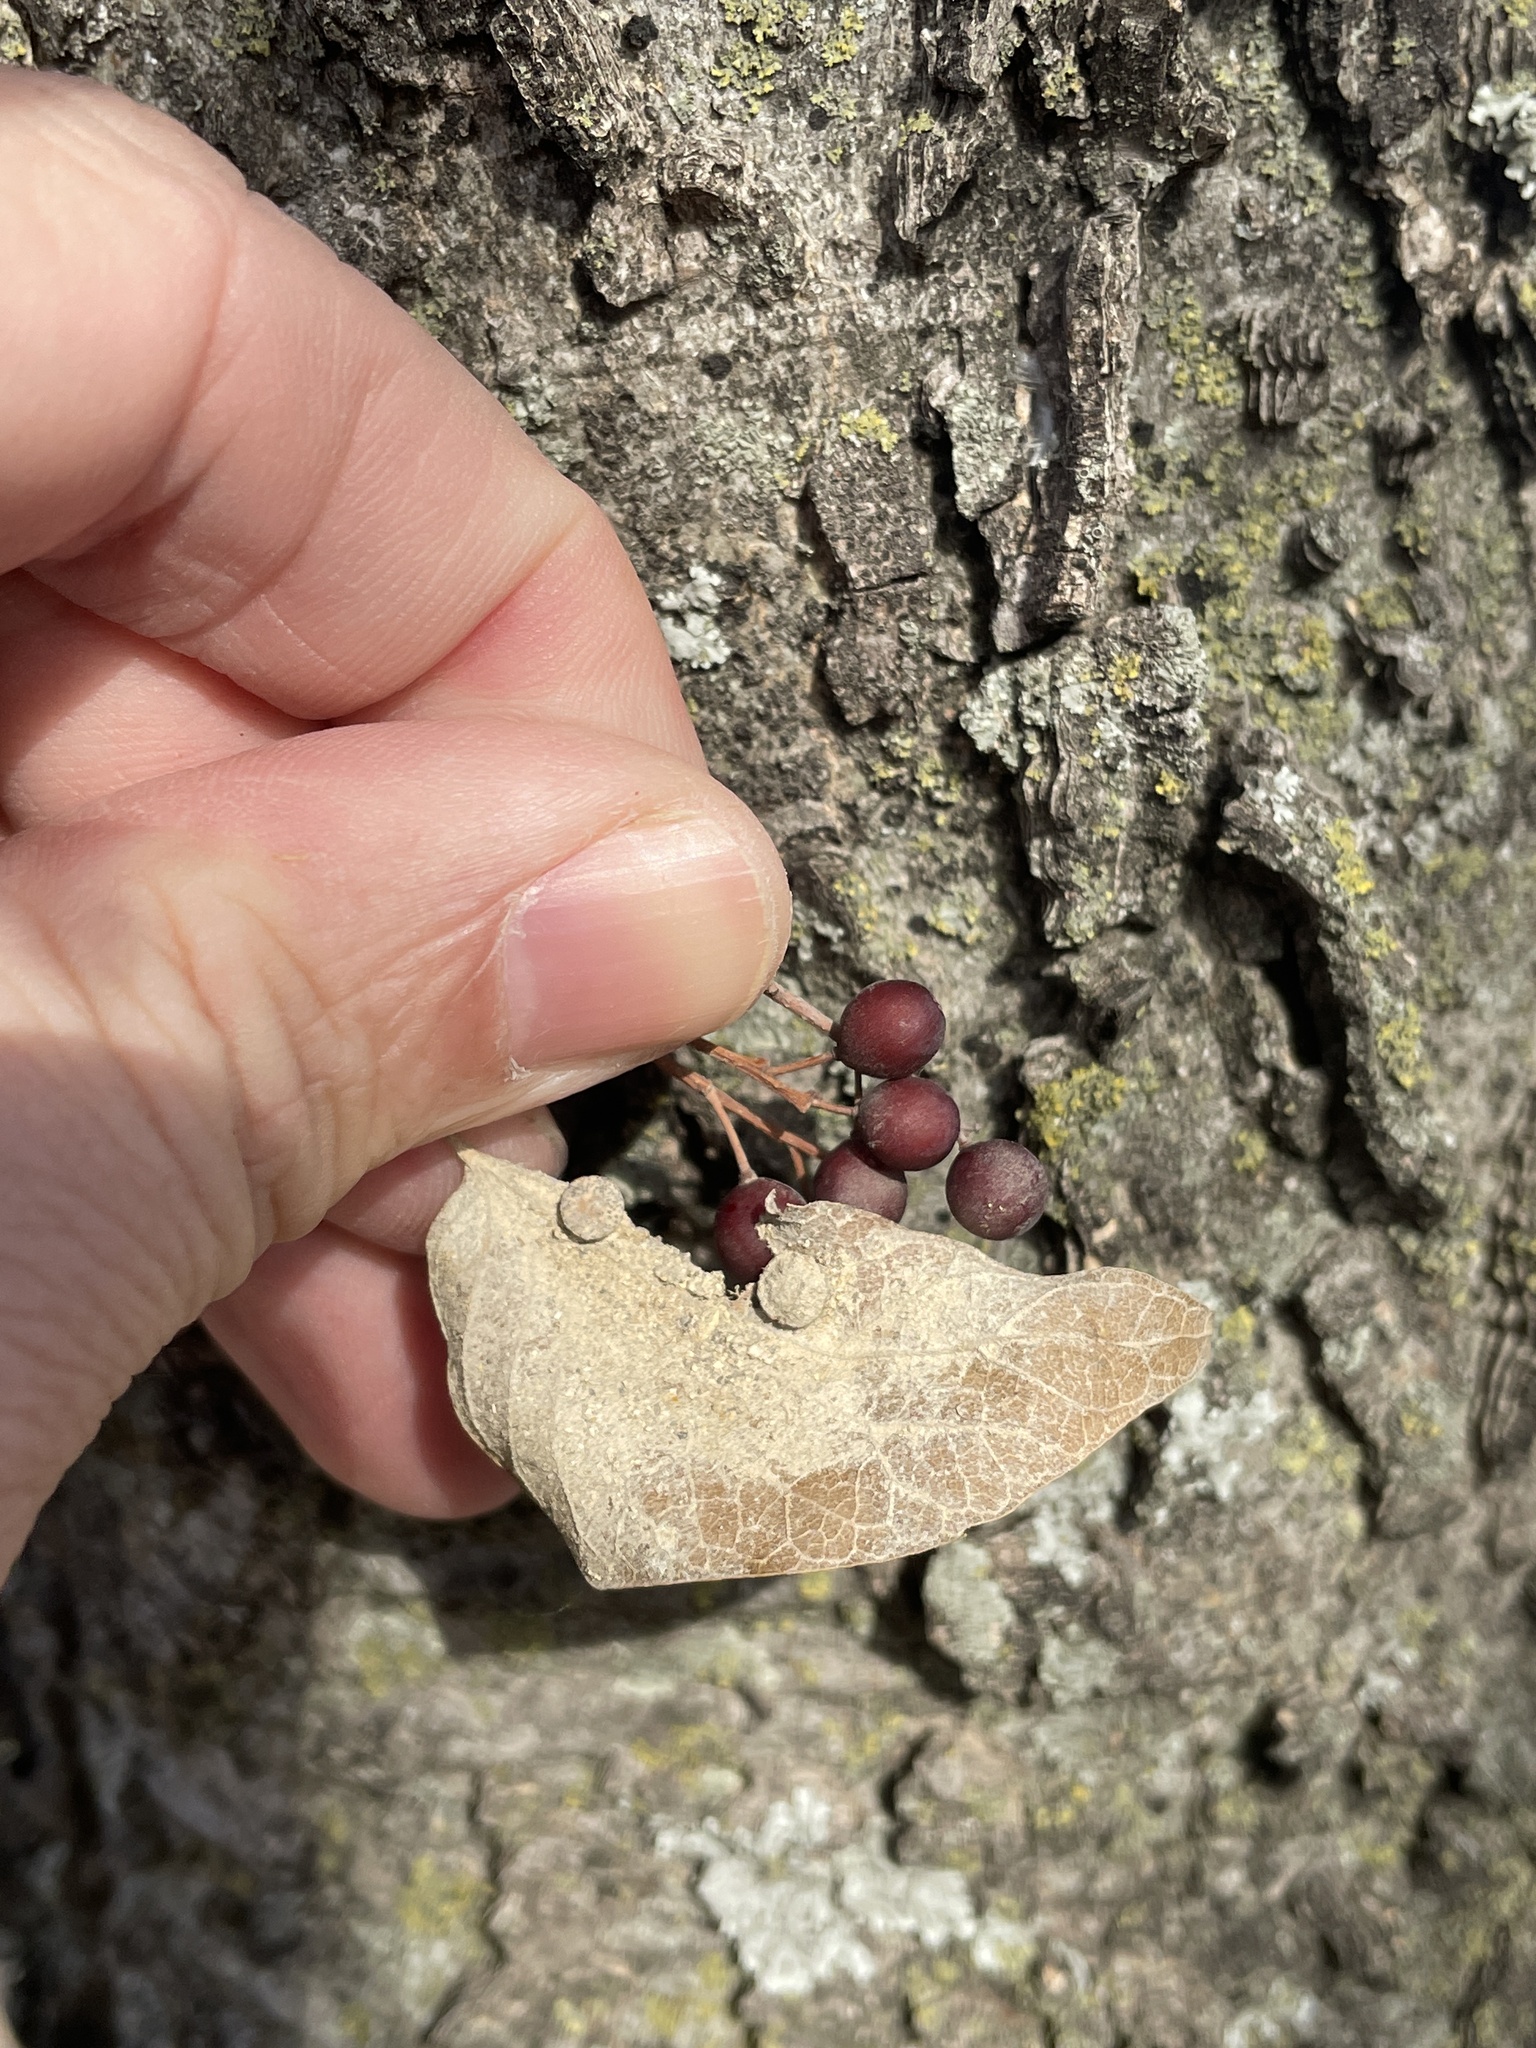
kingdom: Plantae
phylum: Tracheophyta
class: Magnoliopsida
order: Rosales
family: Cannabaceae
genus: Celtis
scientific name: Celtis laevigata
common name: Sugarberry
